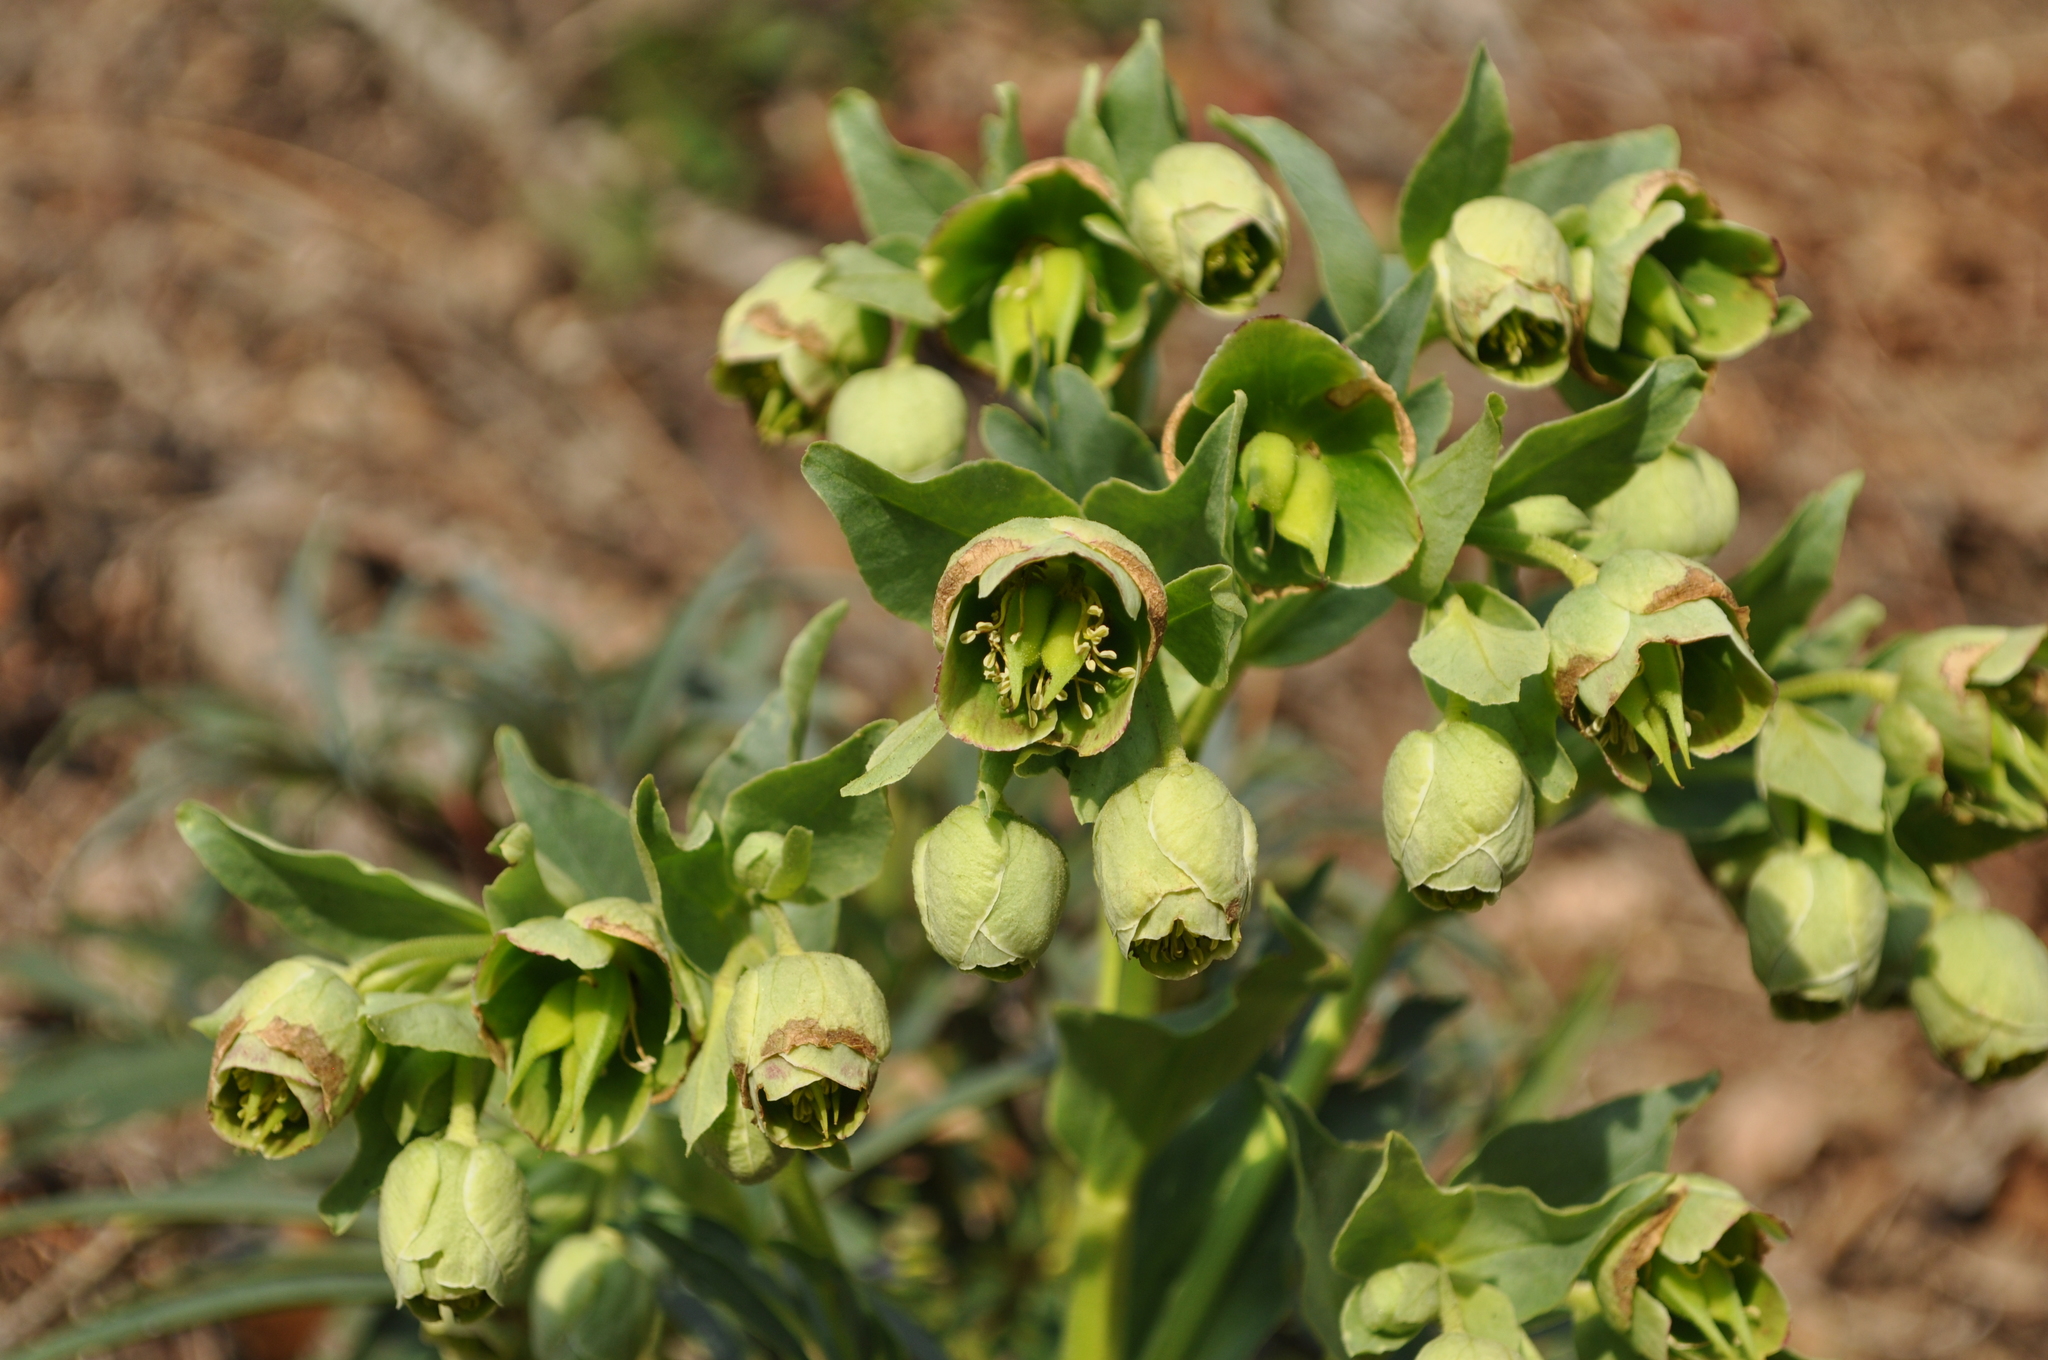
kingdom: Plantae
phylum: Tracheophyta
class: Magnoliopsida
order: Ranunculales
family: Ranunculaceae
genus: Helleborus
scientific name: Helleborus foetidus
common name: Stinking hellebore
